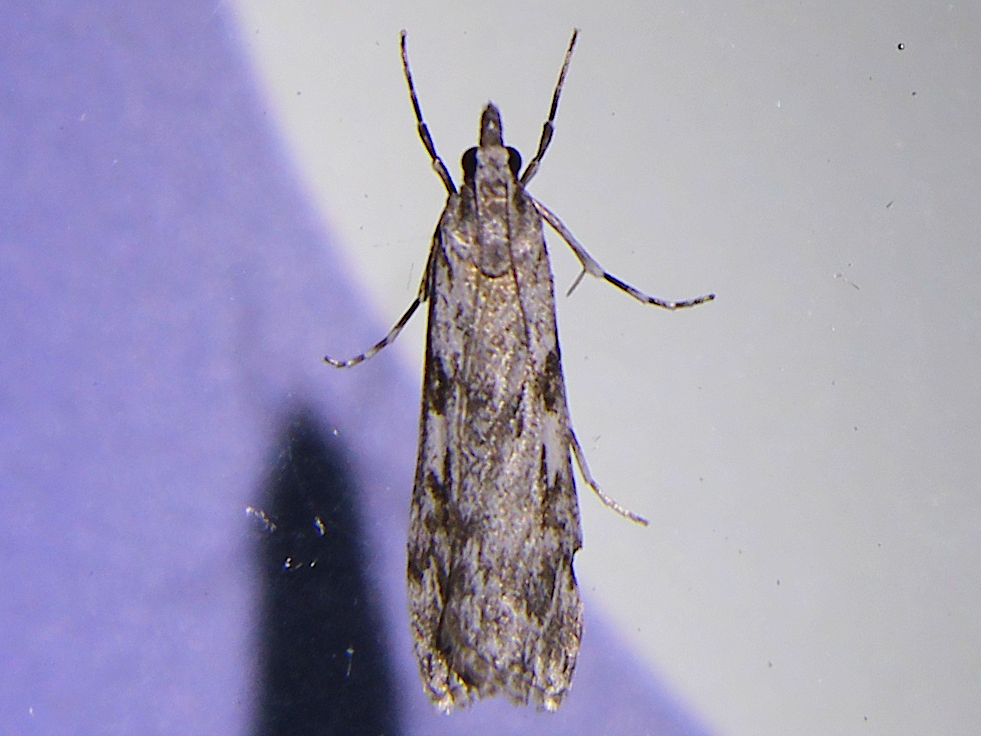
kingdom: Animalia
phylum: Arthropoda
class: Insecta
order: Lepidoptera
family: Crambidae
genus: Scoparia
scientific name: Scoparia halopis
